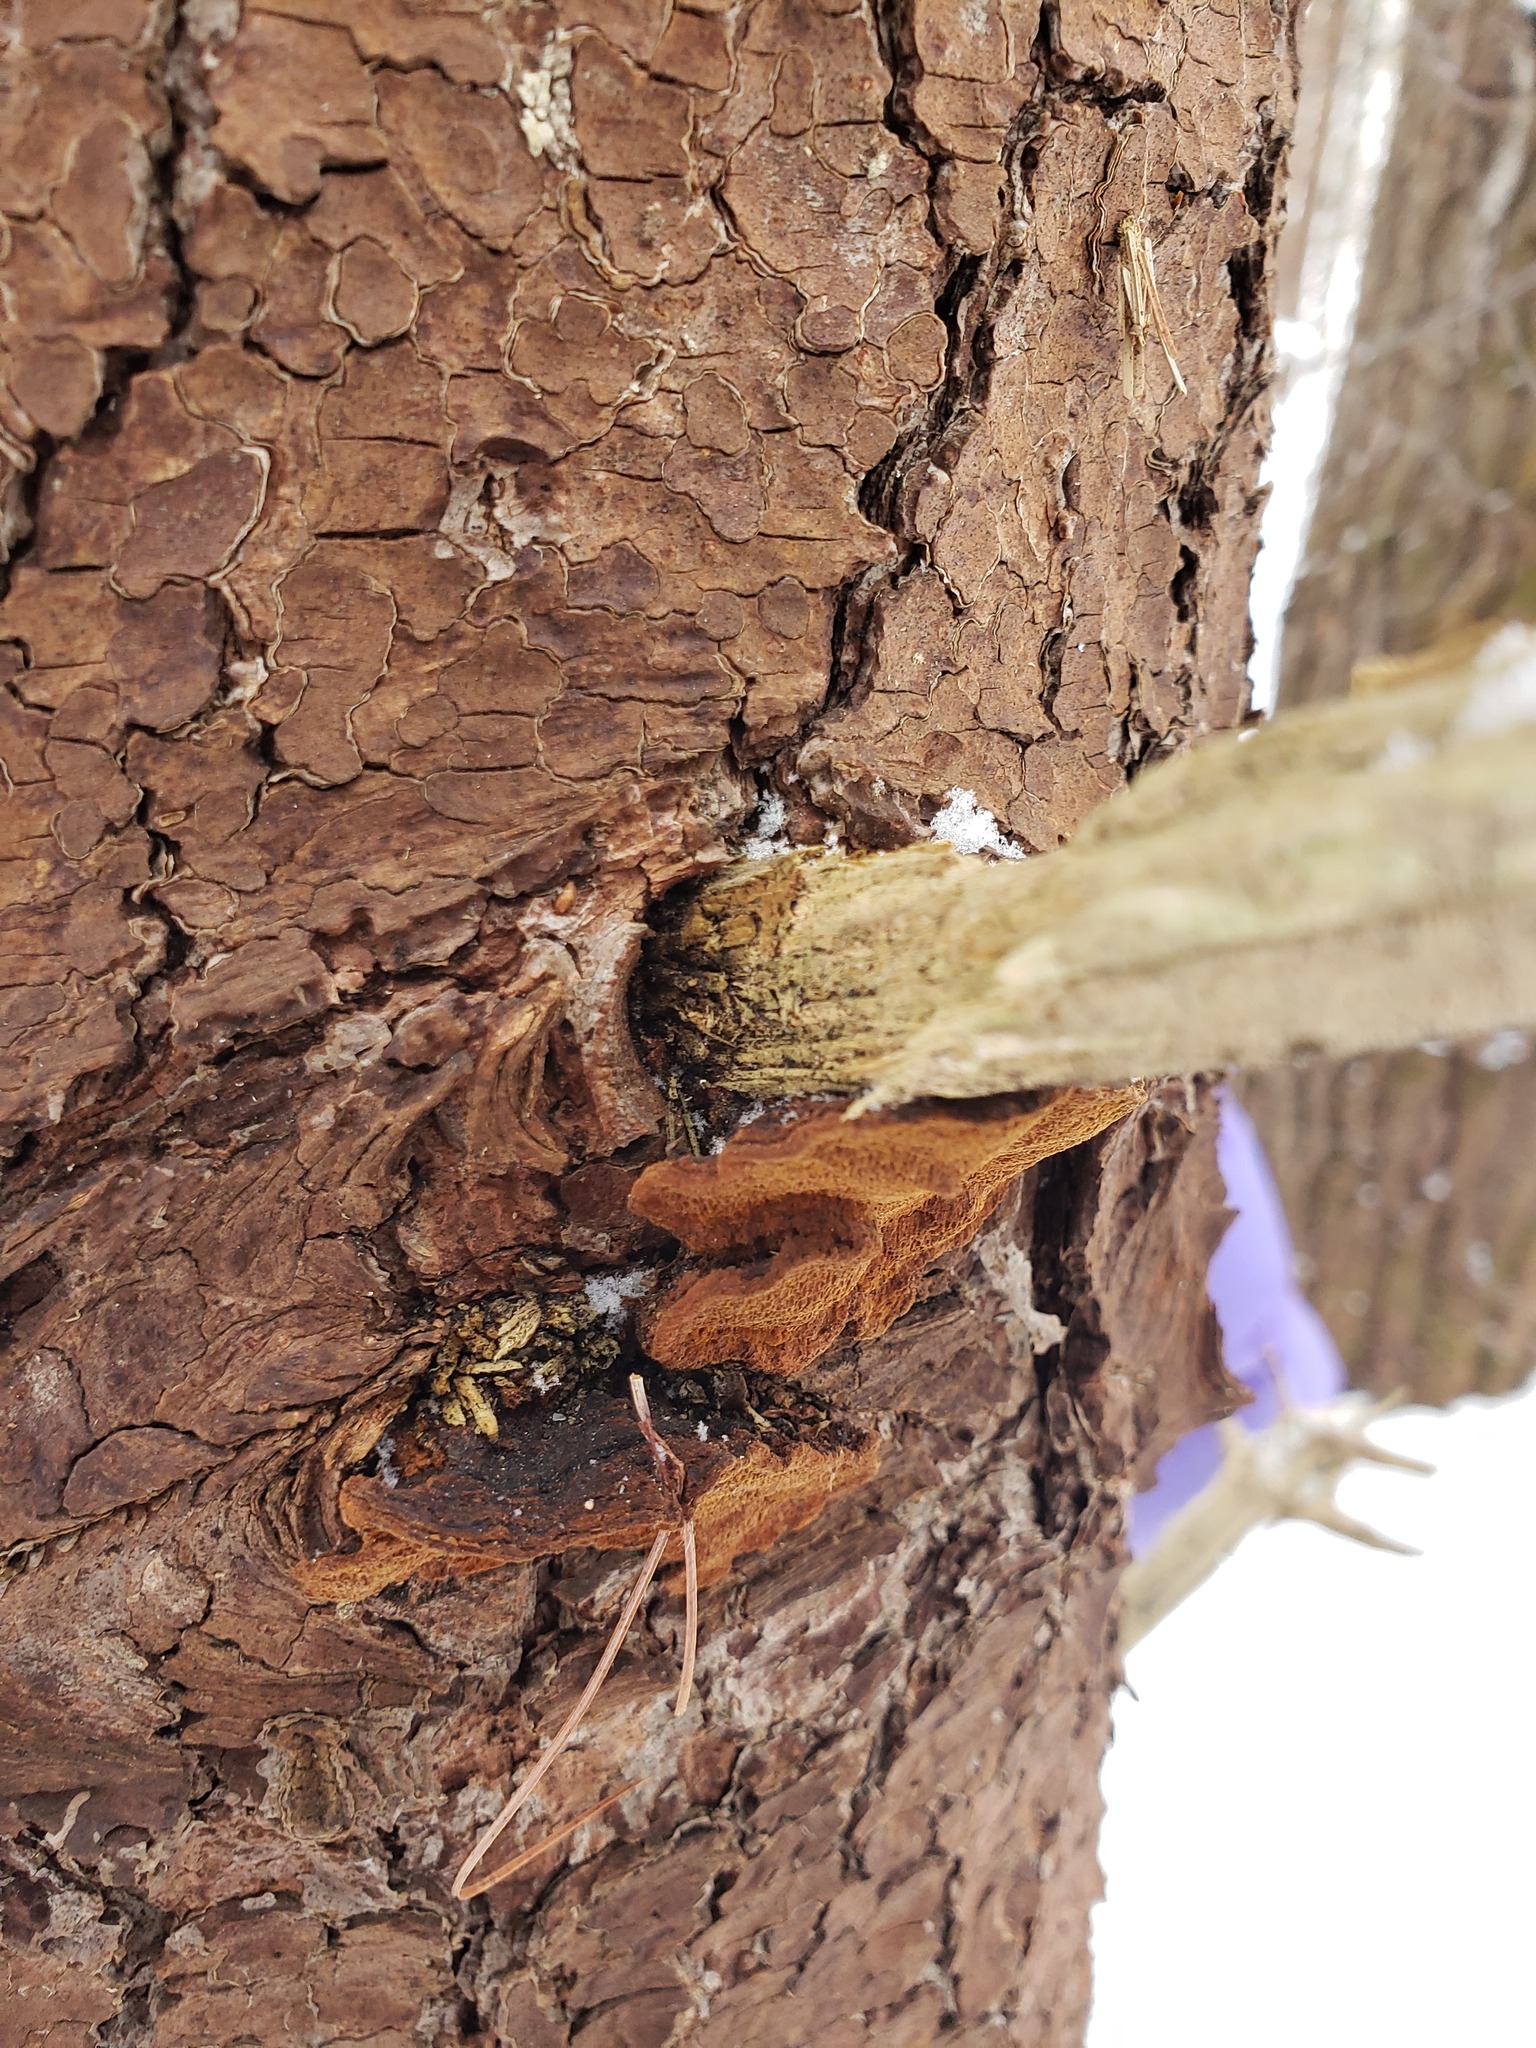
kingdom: Fungi
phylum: Basidiomycota
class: Agaricomycetes
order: Hymenochaetales
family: Hymenochaetaceae
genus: Porodaedalea
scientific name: Porodaedalea pini
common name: Pine bracket
